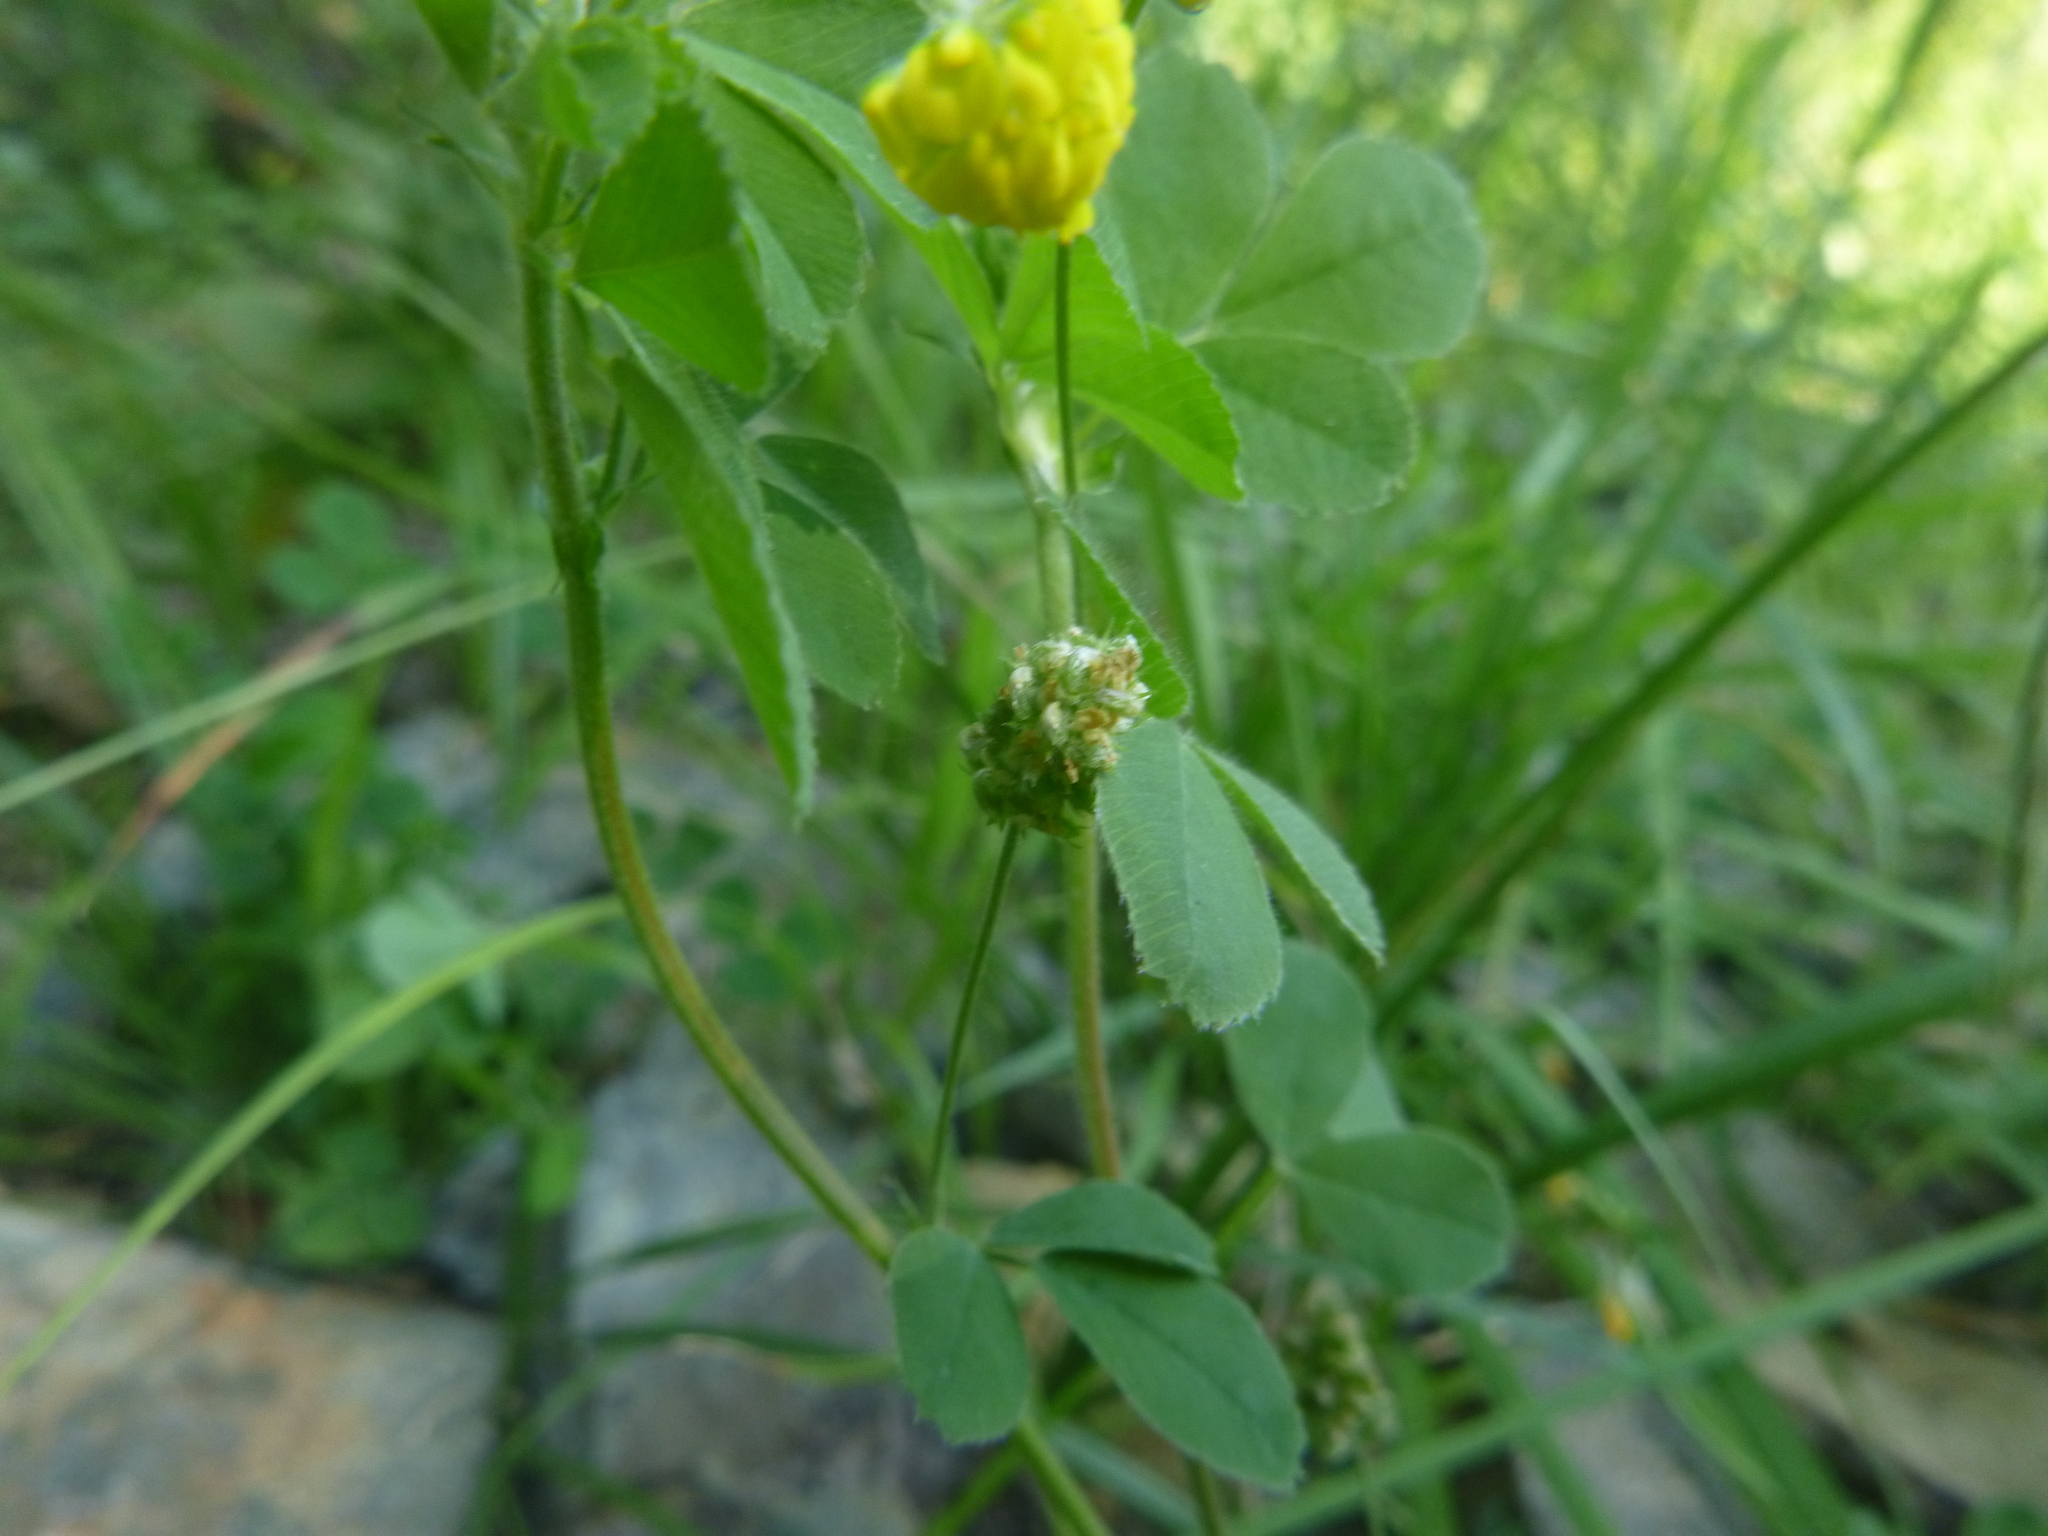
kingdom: Plantae
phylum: Tracheophyta
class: Magnoliopsida
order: Fabales
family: Fabaceae
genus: Medicago
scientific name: Medicago lupulina
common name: Black medick
